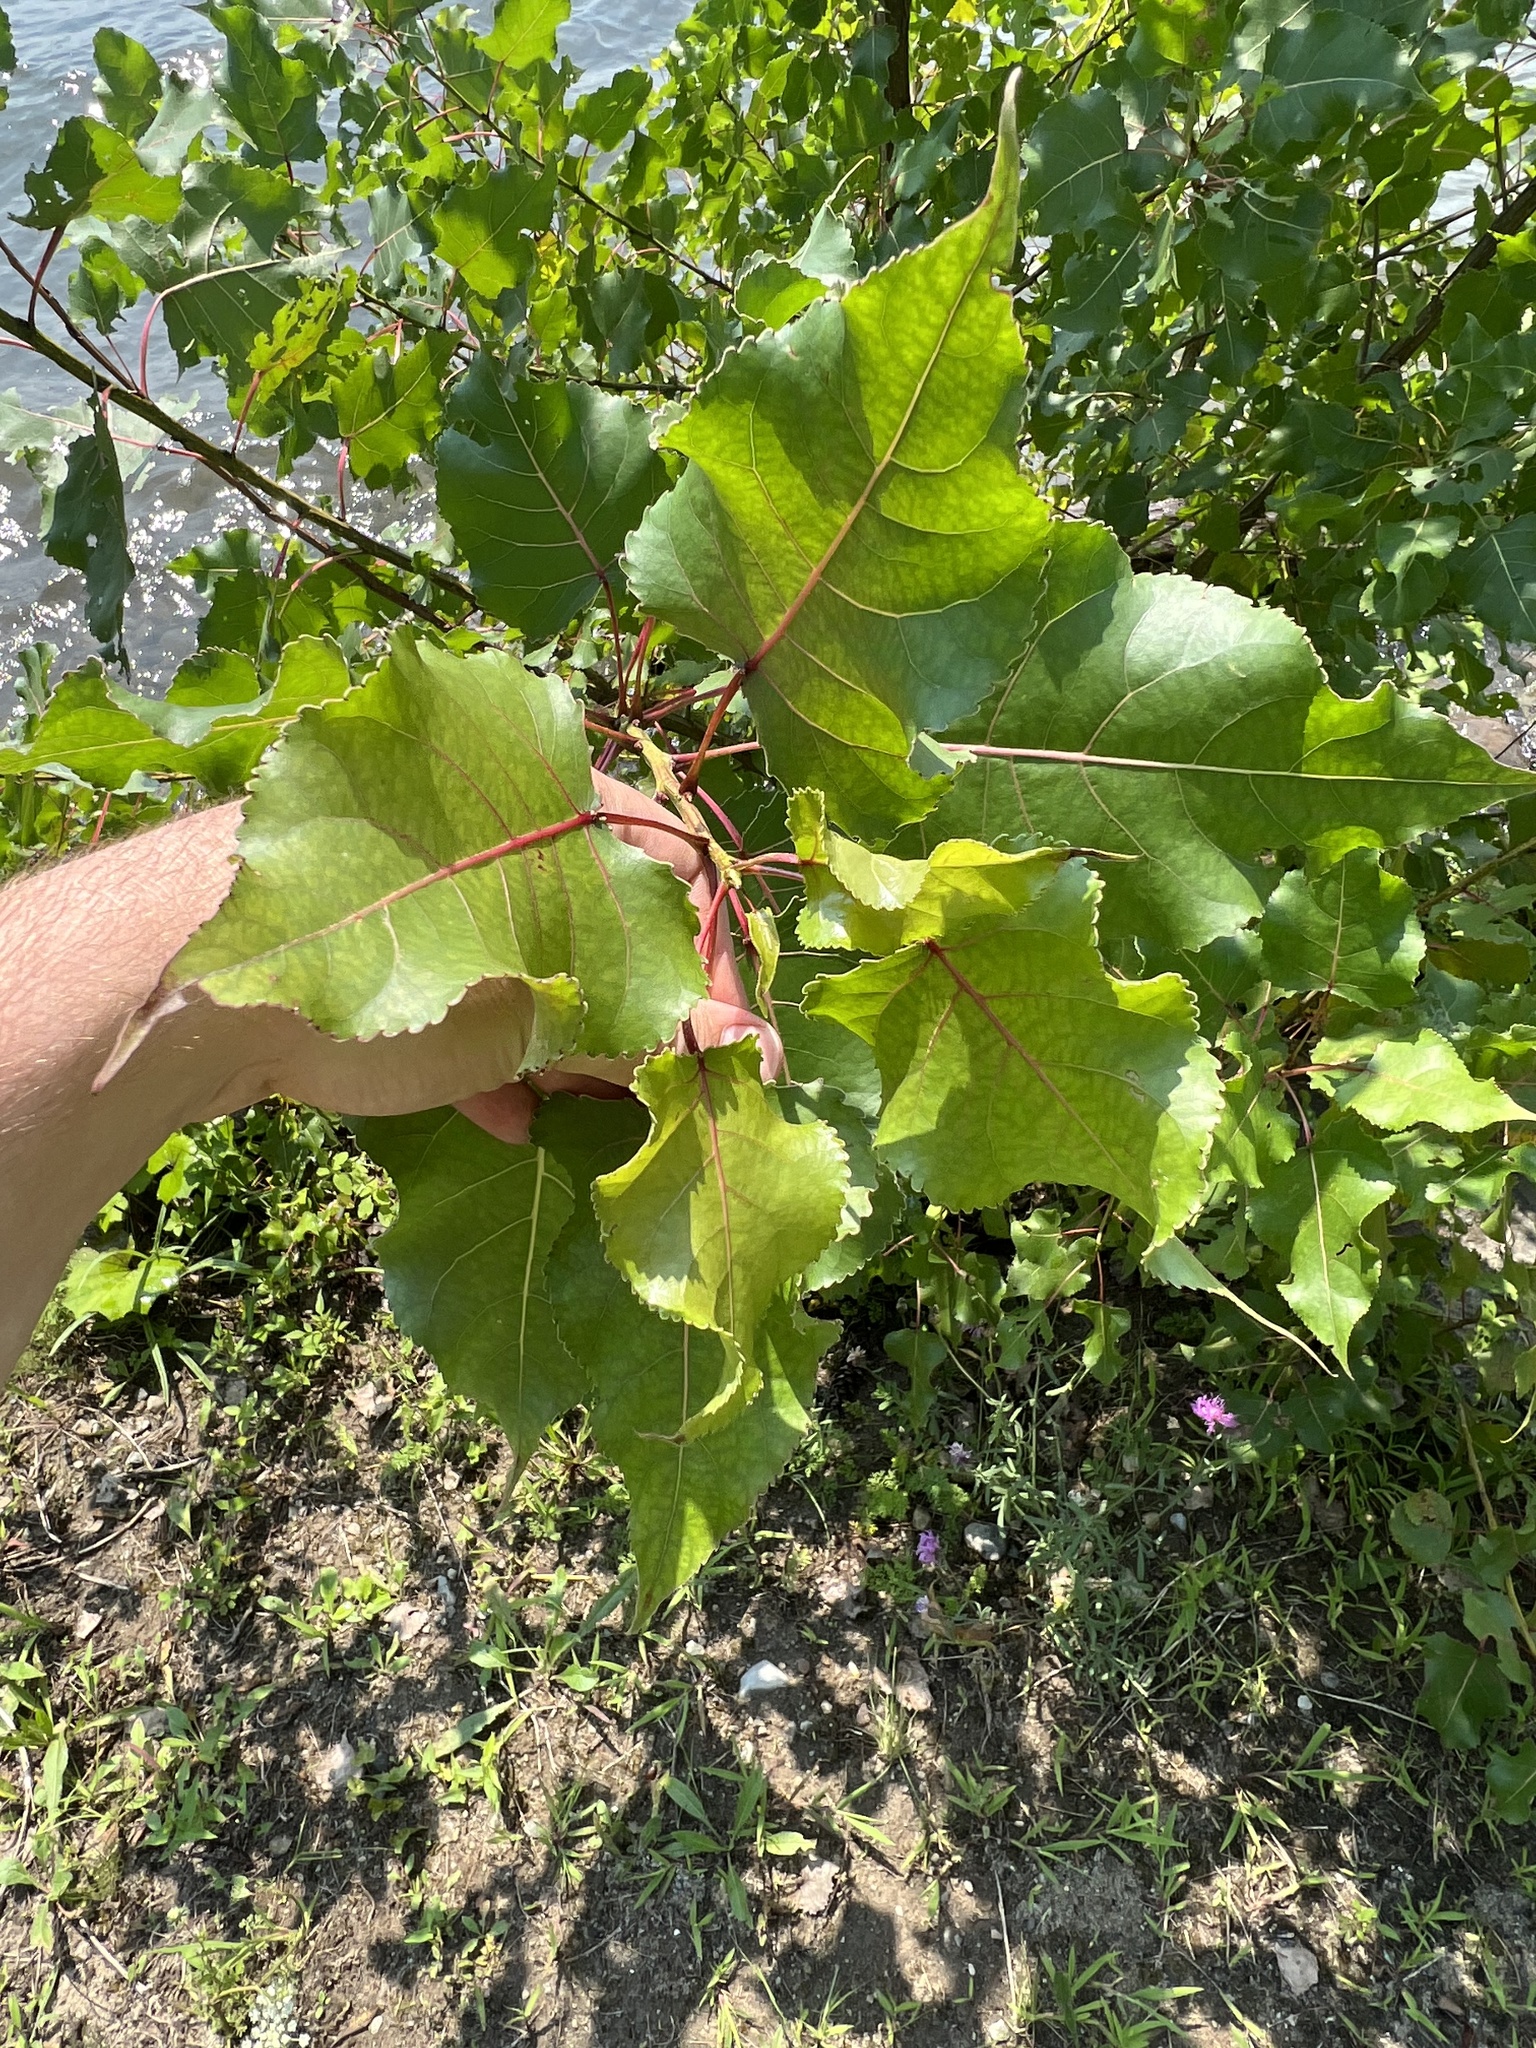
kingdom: Plantae
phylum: Tracheophyta
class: Magnoliopsida
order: Malpighiales
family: Salicaceae
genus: Populus
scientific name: Populus deltoides
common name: Eastern cottonwood
